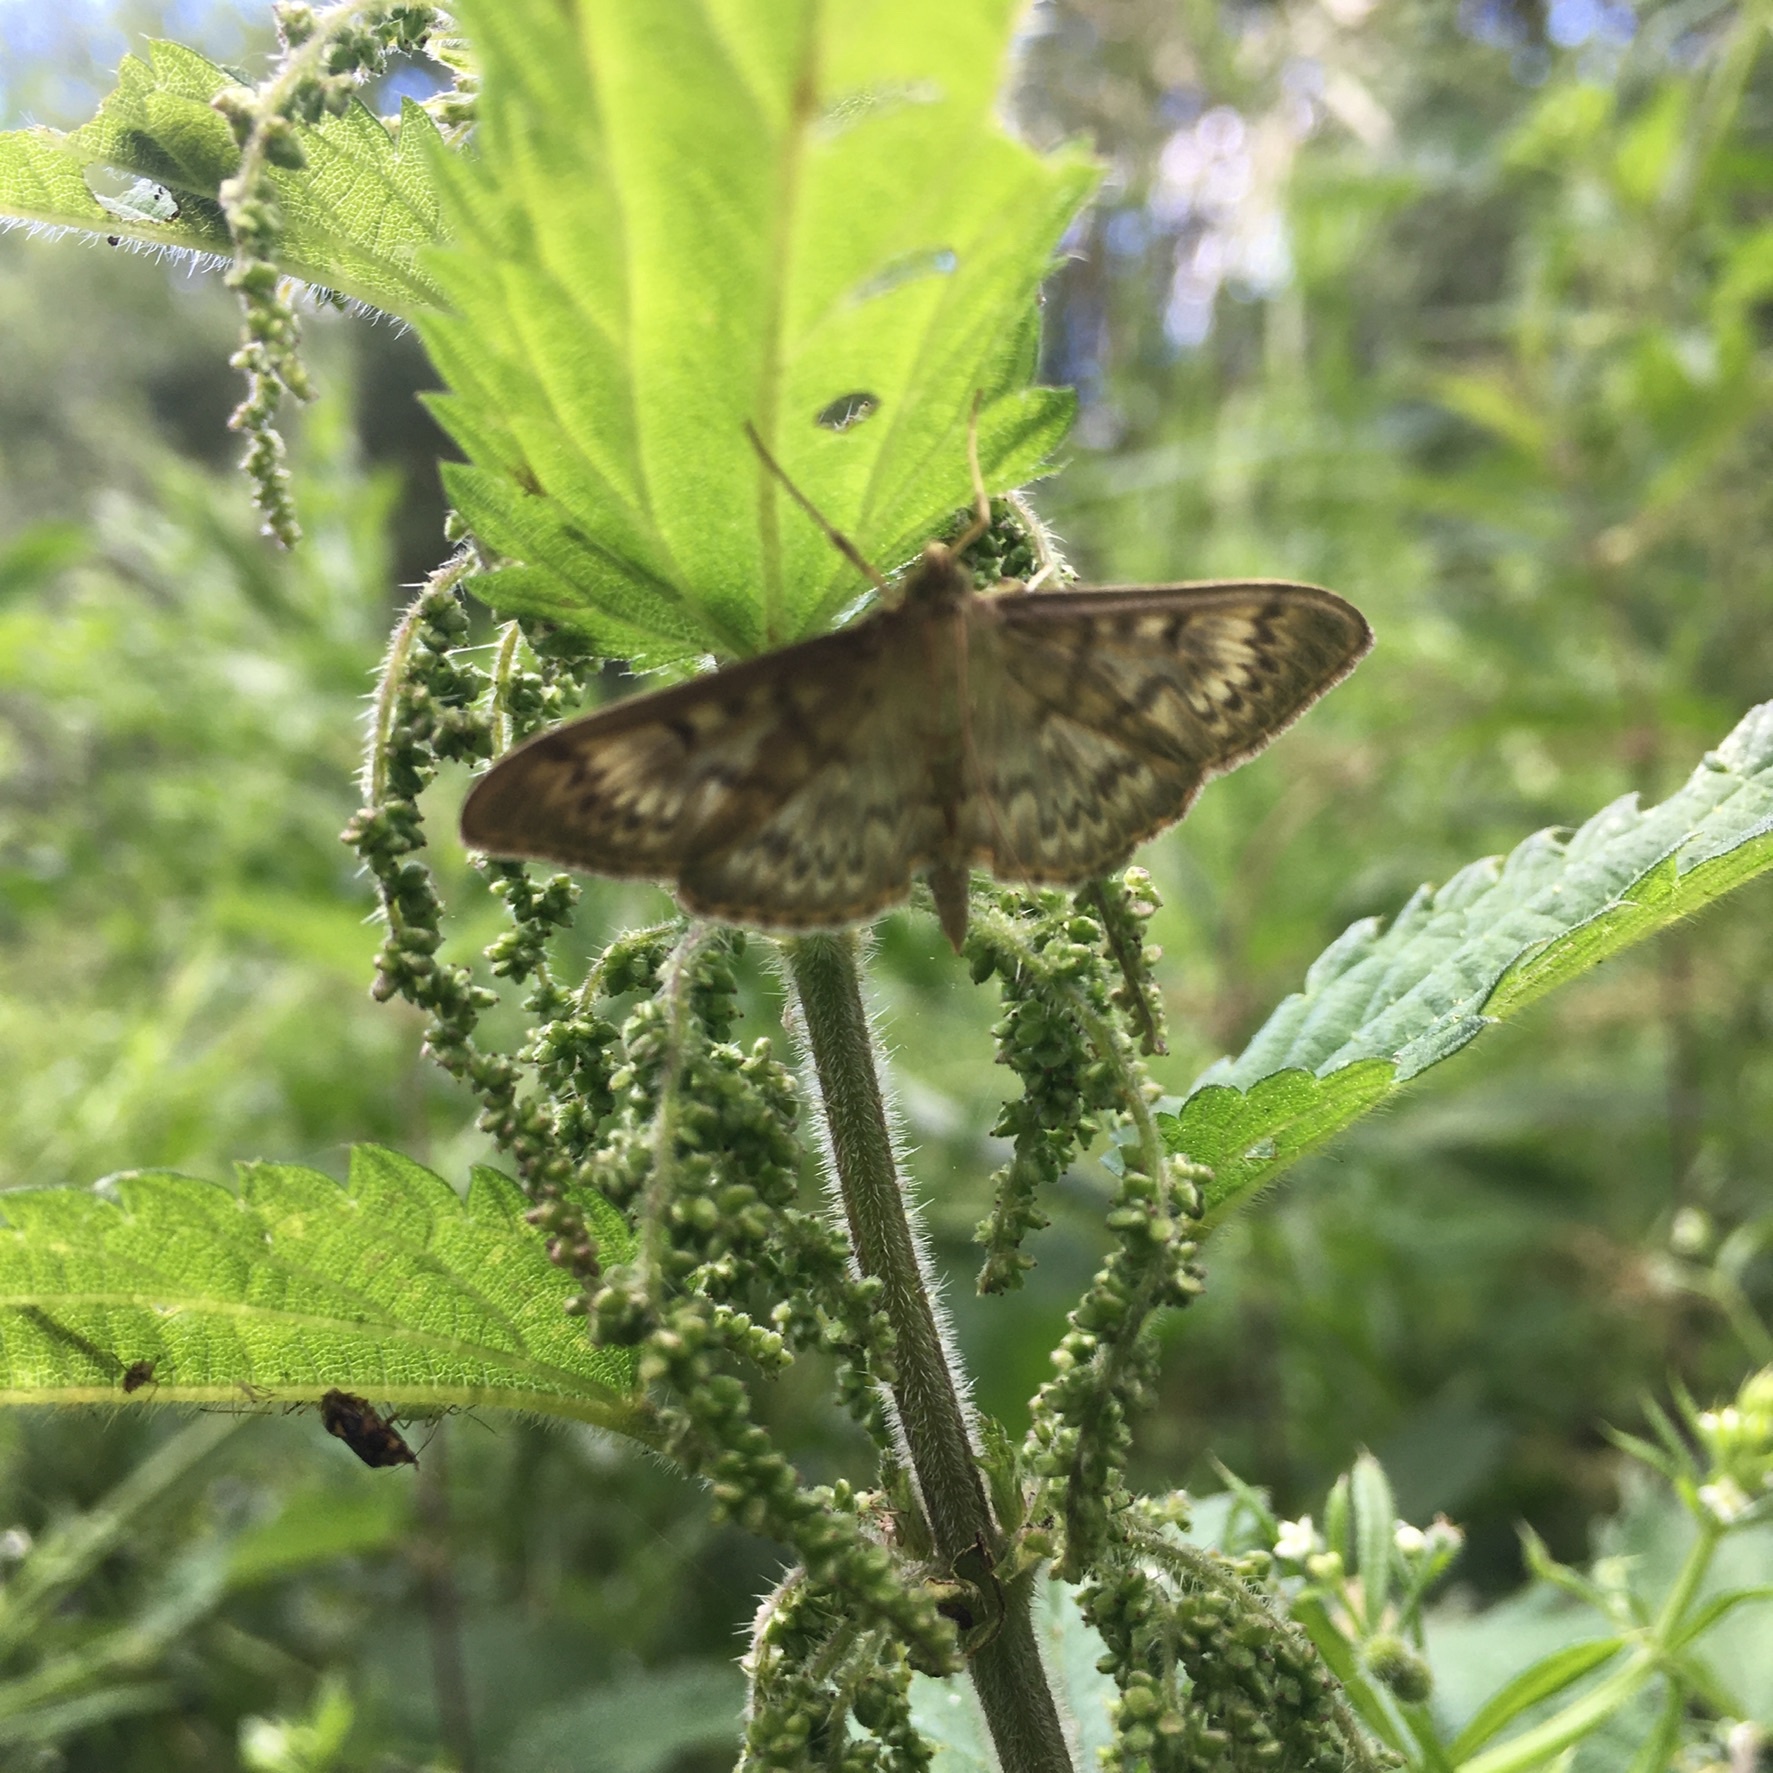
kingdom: Animalia
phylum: Arthropoda
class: Insecta
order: Lepidoptera
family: Crambidae
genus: Patania
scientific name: Patania ruralis
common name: Mother of pearl
